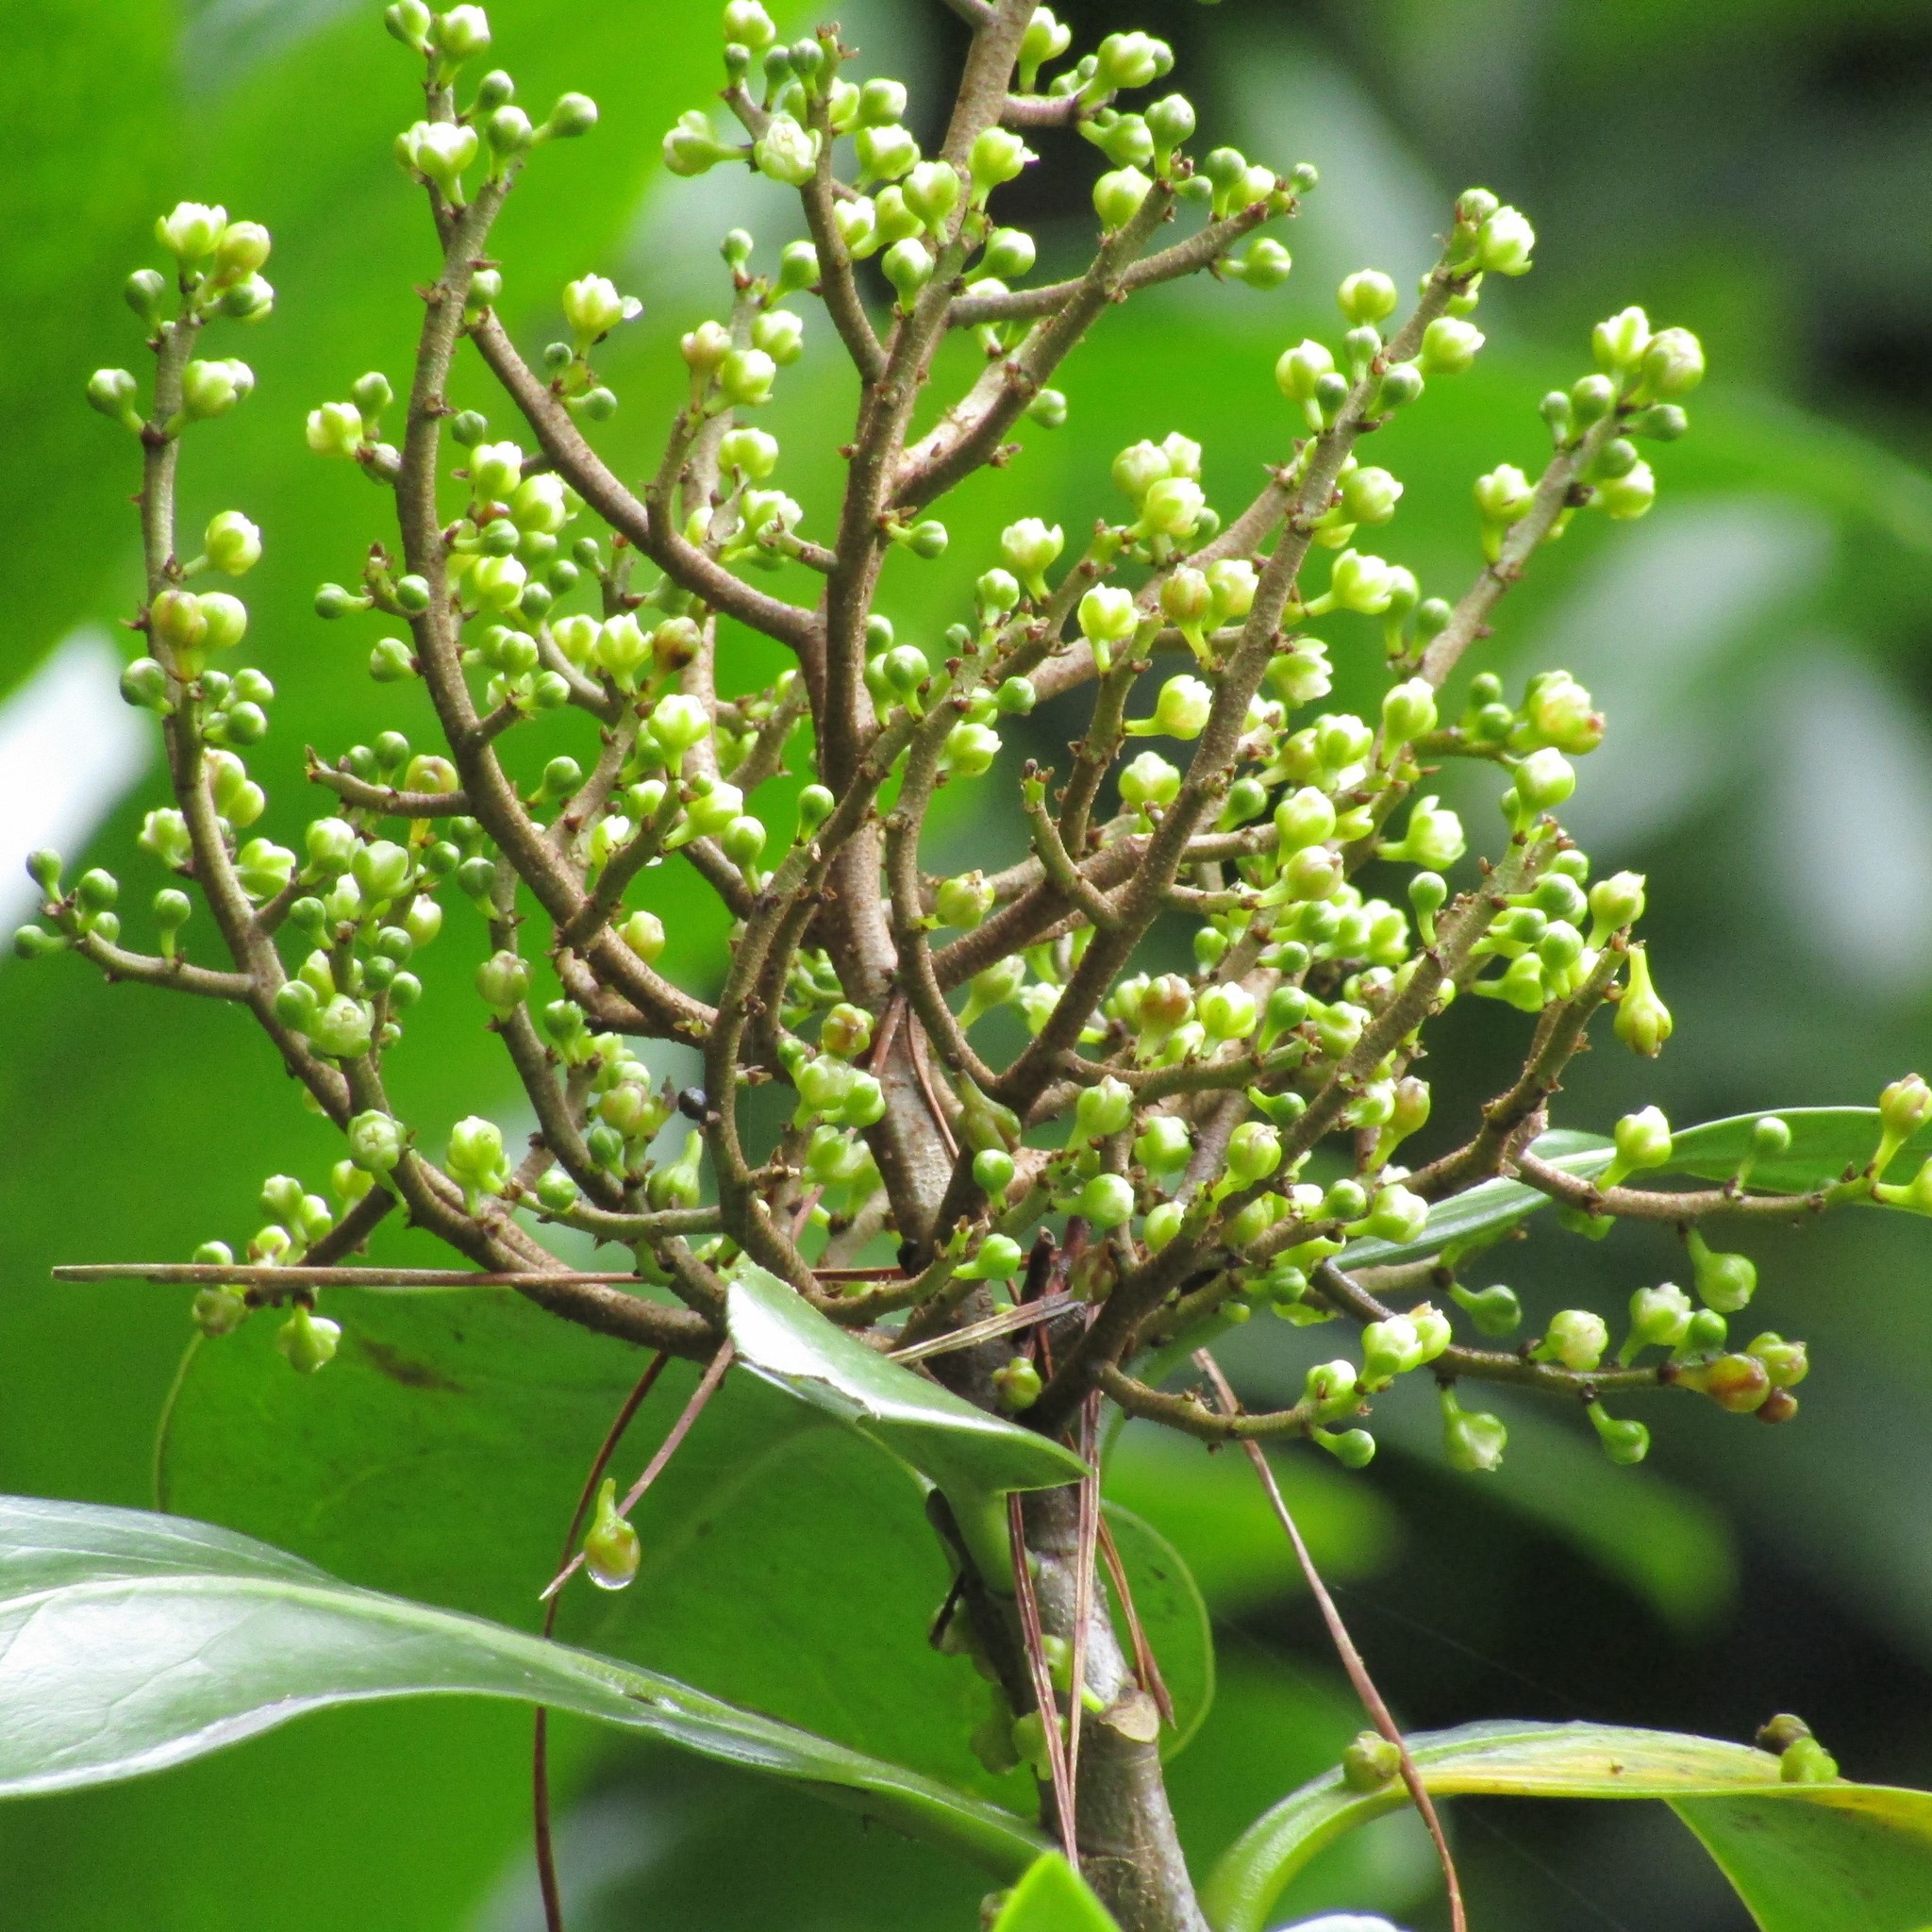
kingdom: Plantae
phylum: Tracheophyta
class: Magnoliopsida
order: Cucurbitales
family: Corynocarpaceae
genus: Corynocarpus
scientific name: Corynocarpus laevigatus
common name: New zealand laurel
